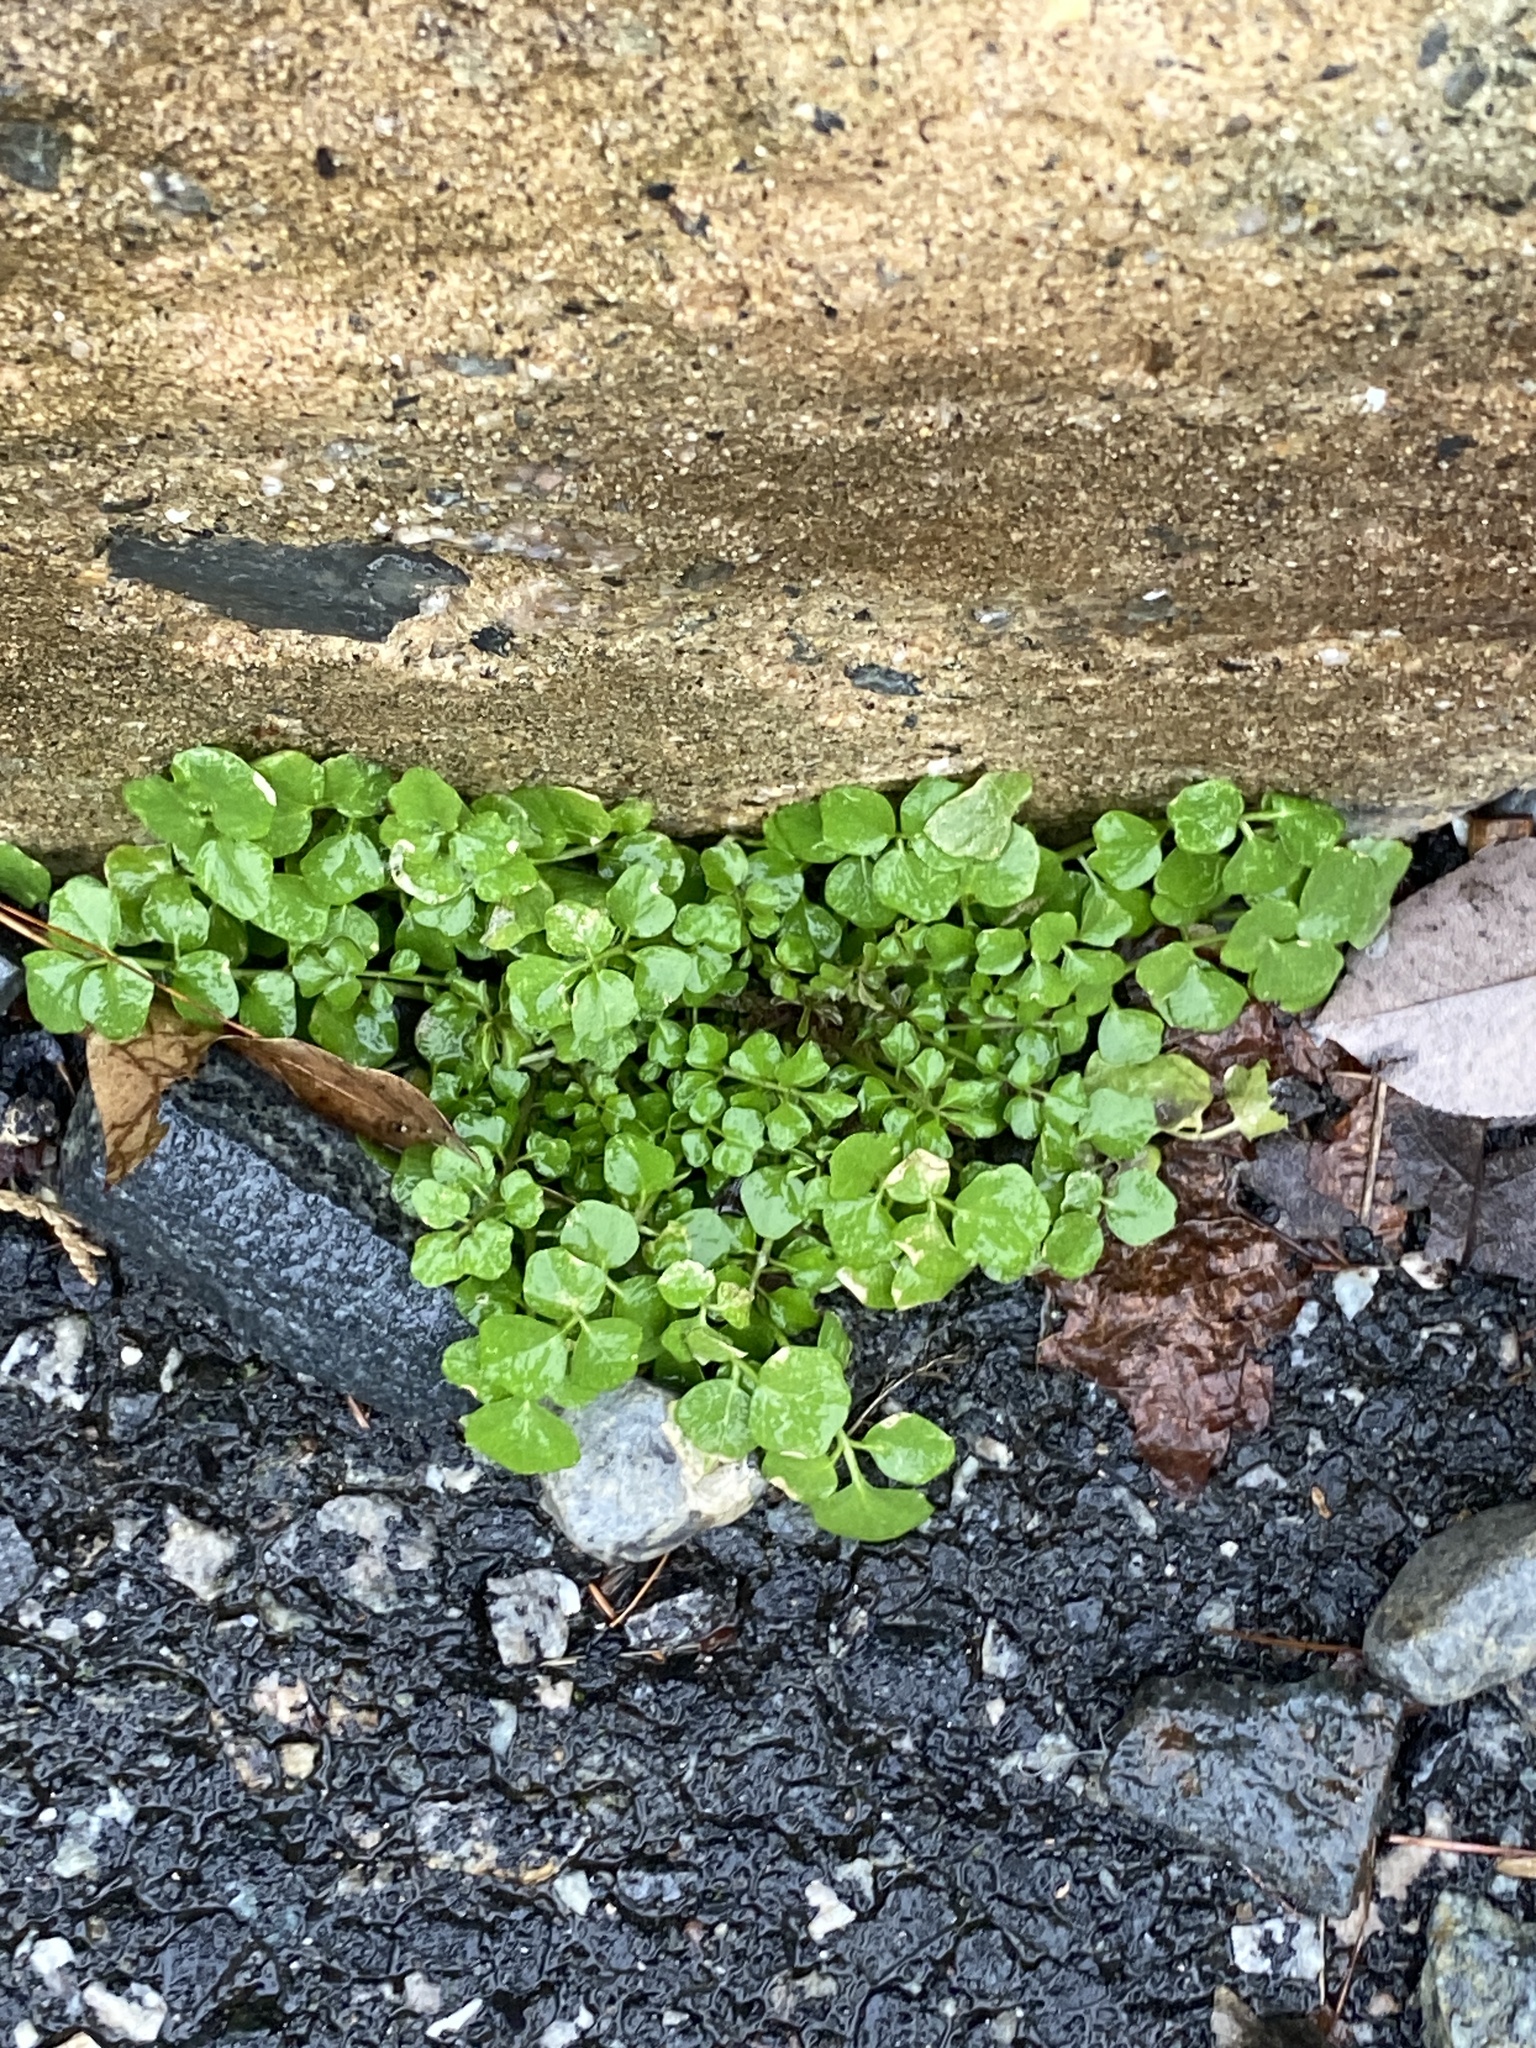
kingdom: Plantae
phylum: Tracheophyta
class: Magnoliopsida
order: Brassicales
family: Brassicaceae
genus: Cardamine
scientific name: Cardamine hirsuta
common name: Hairy bittercress
